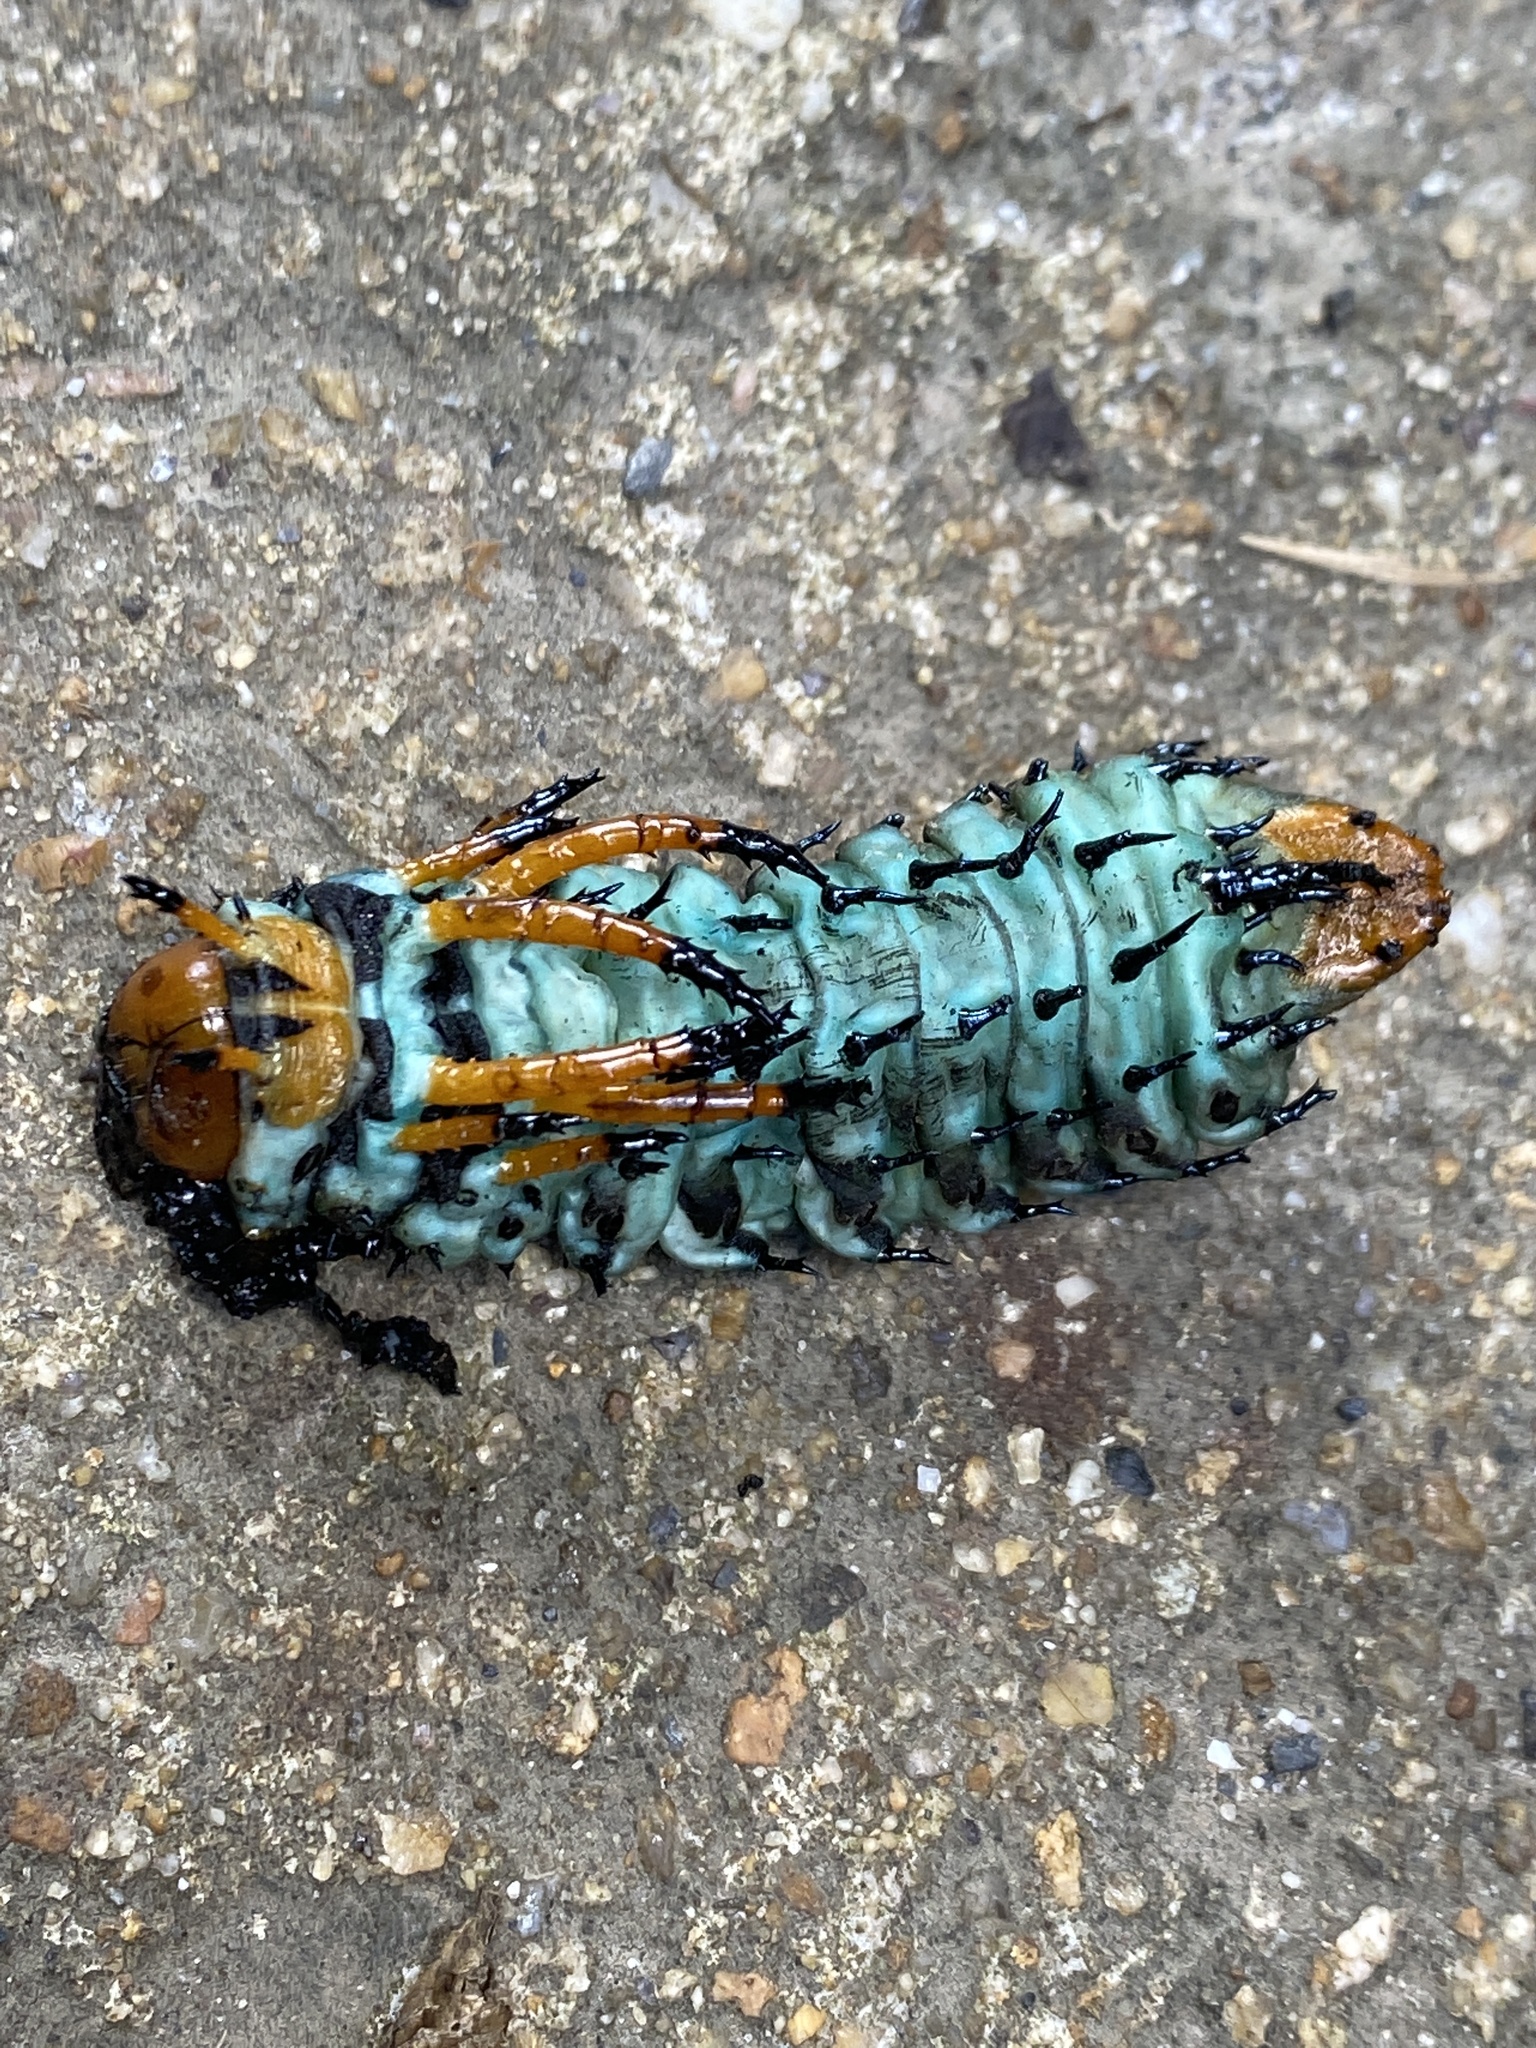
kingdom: Animalia
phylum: Arthropoda
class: Insecta
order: Lepidoptera
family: Saturniidae
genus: Citheronia
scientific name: Citheronia regalis
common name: Hickory horned devil
